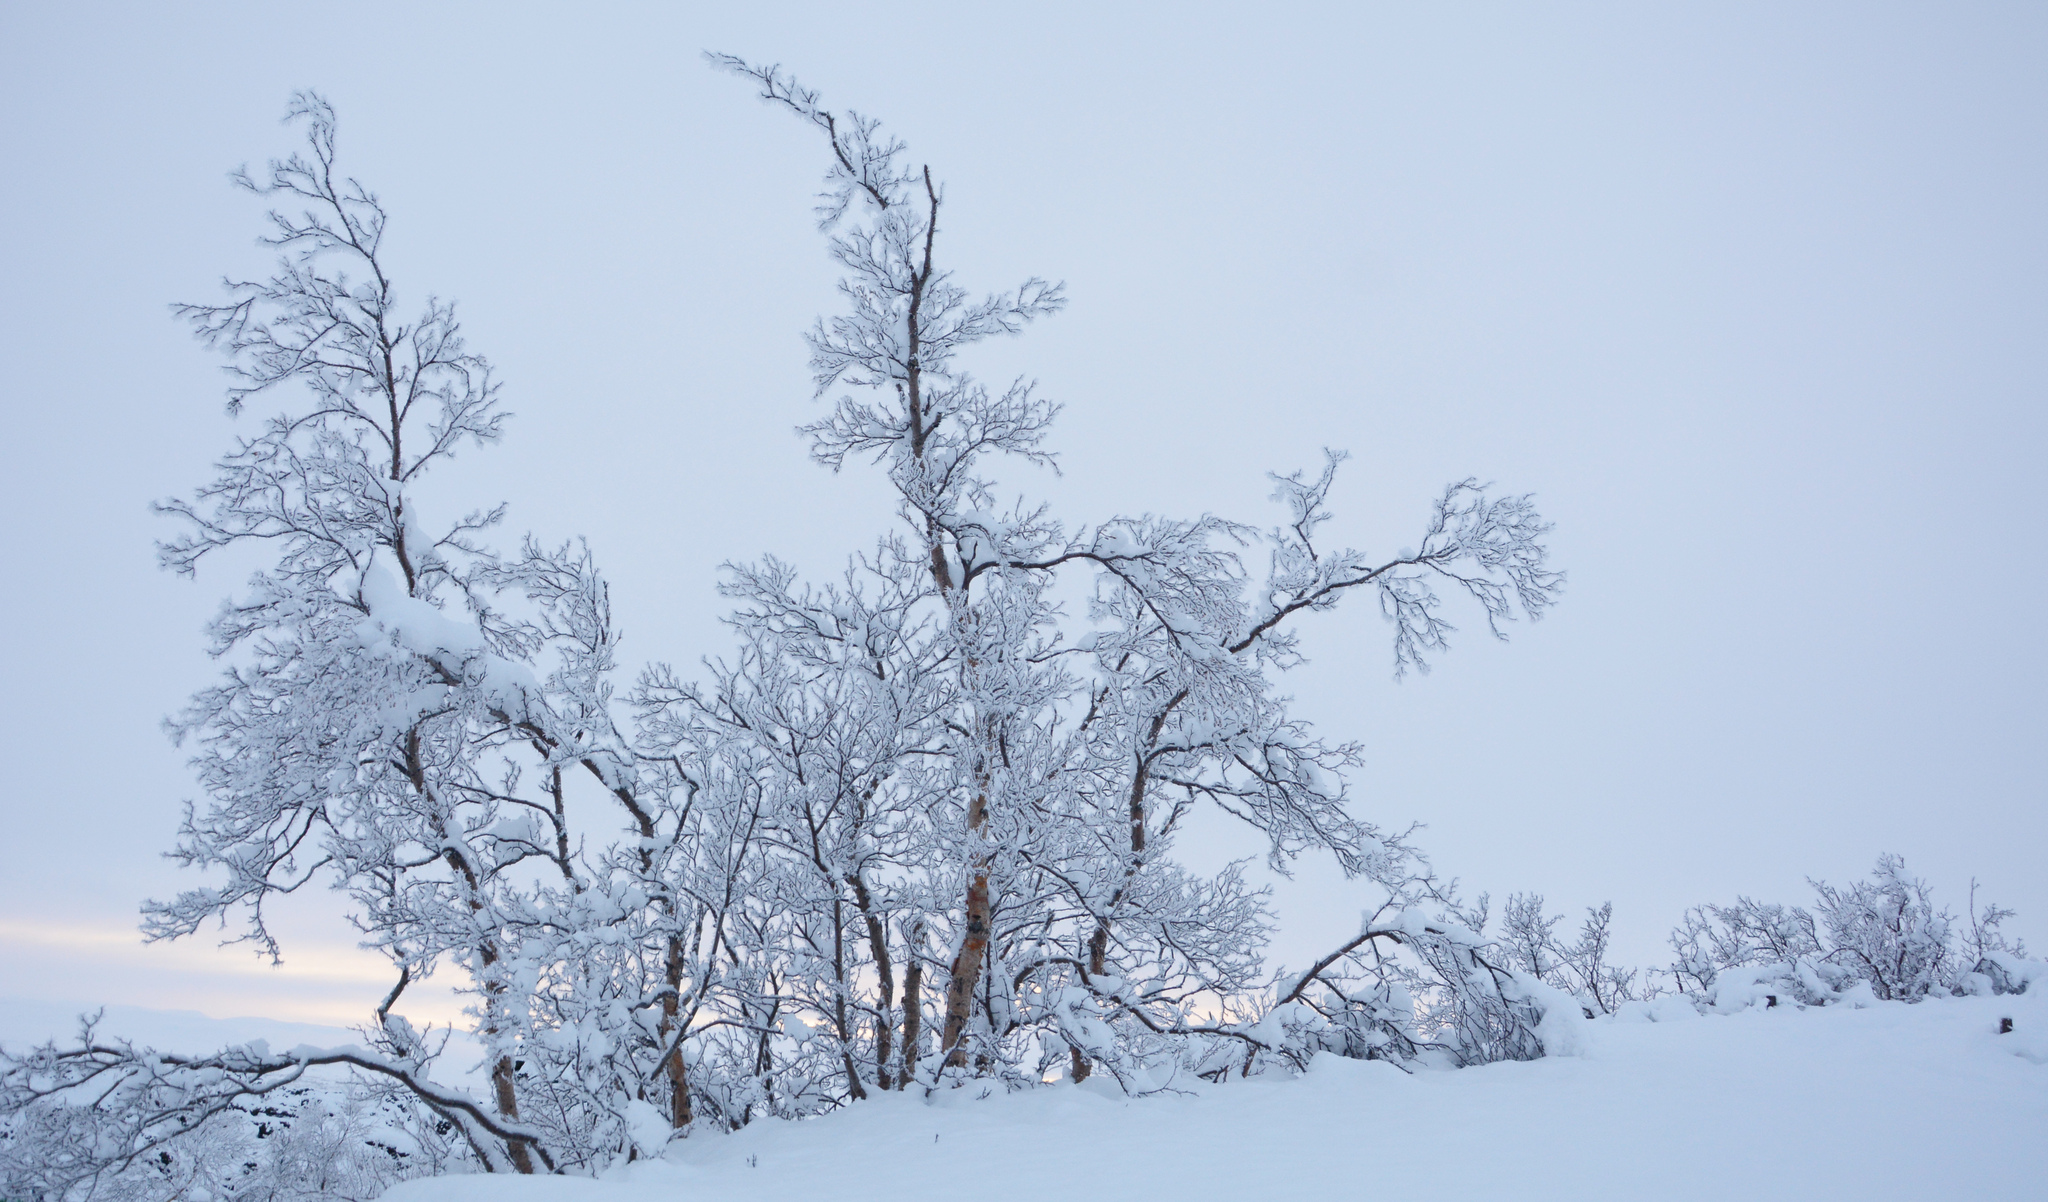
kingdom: Plantae
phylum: Tracheophyta
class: Magnoliopsida
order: Fagales
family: Betulaceae
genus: Betula
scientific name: Betula pubescens
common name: Downy birch
